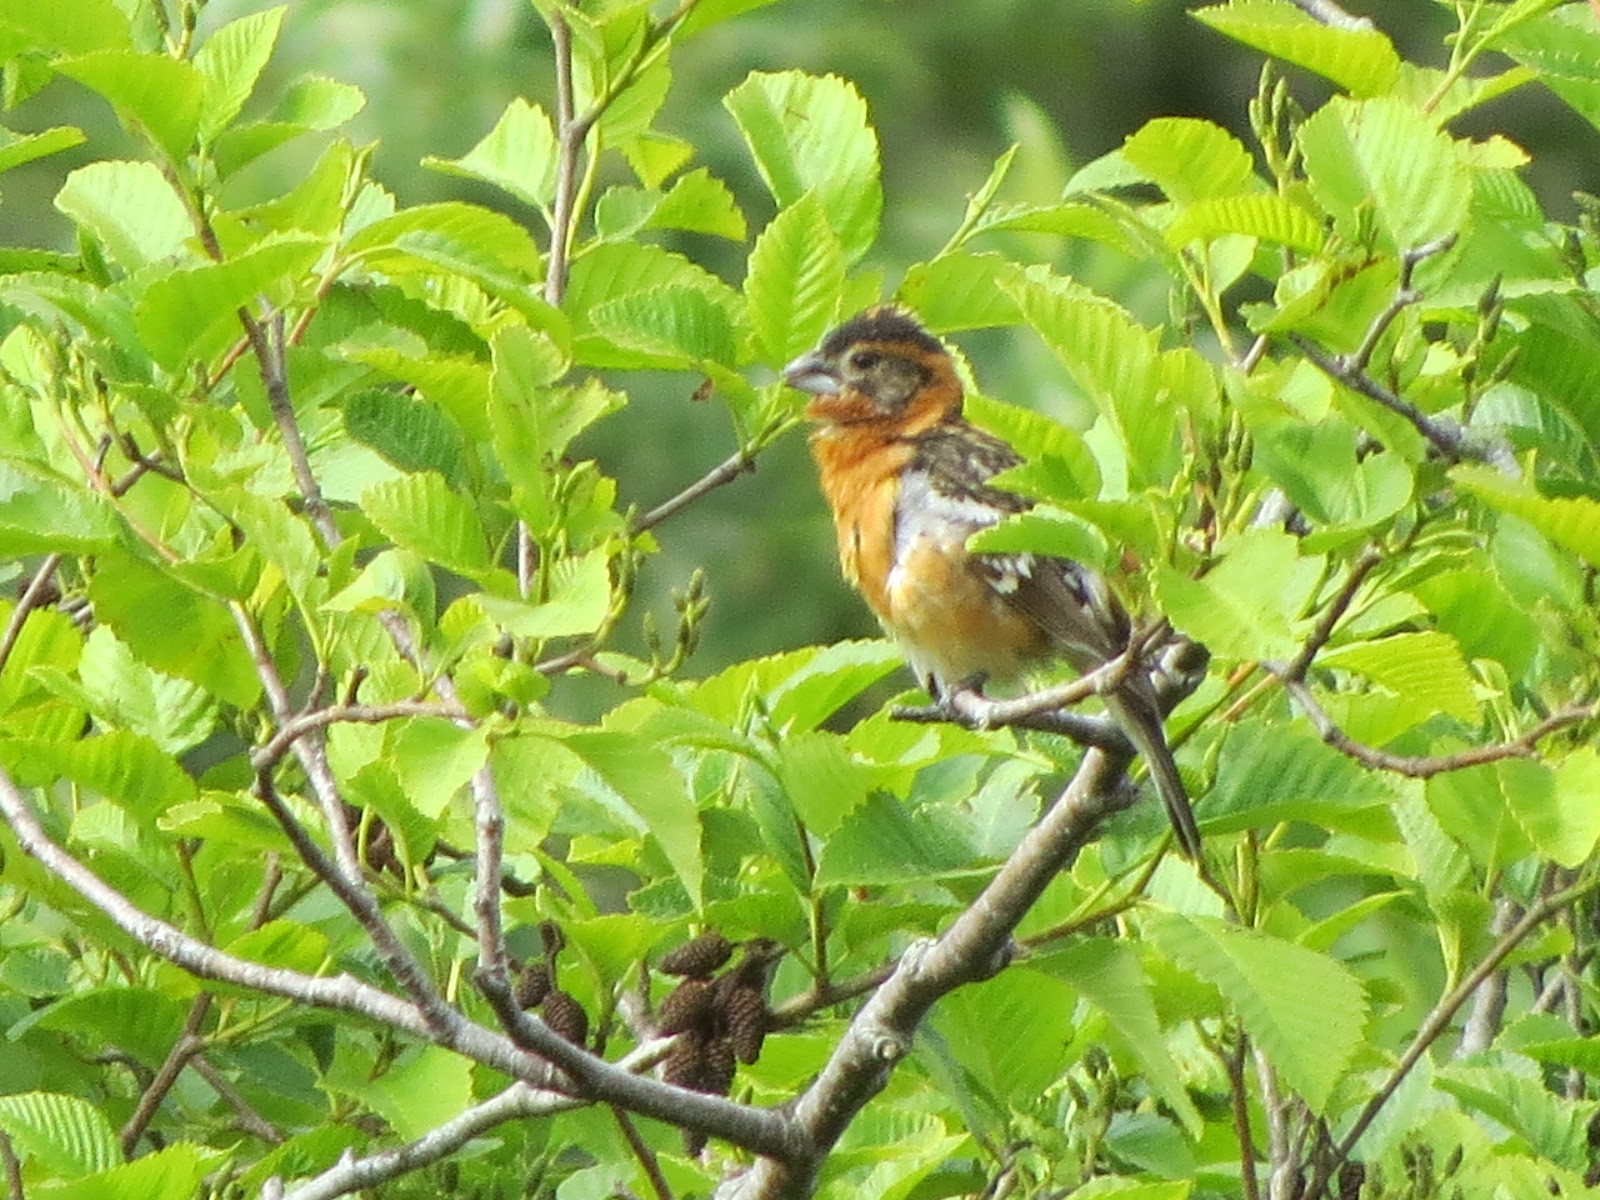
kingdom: Animalia
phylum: Chordata
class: Aves
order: Passeriformes
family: Cardinalidae
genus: Pheucticus
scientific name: Pheucticus melanocephalus
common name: Black-headed grosbeak
